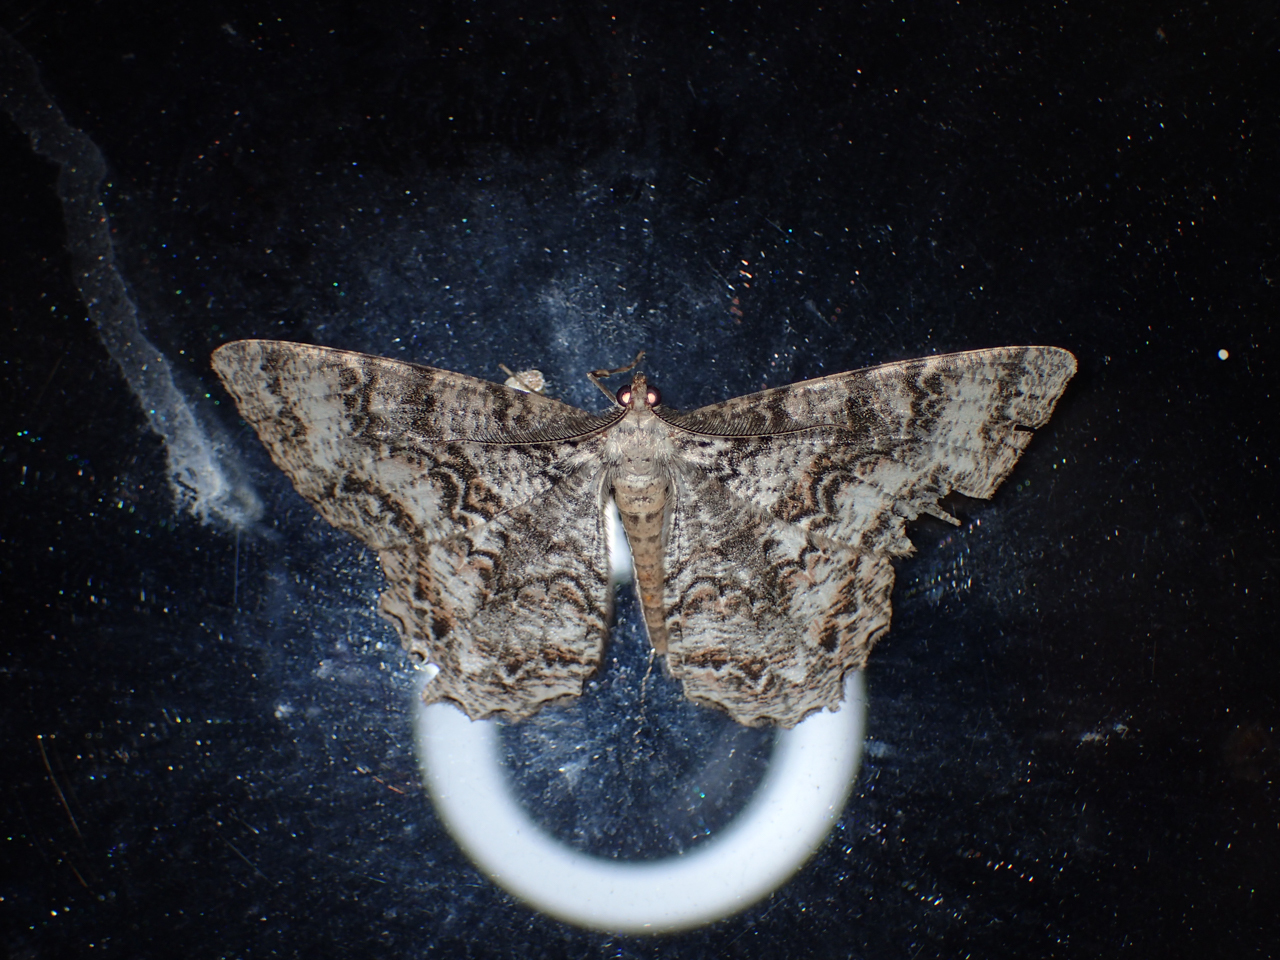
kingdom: Animalia
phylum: Arthropoda
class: Insecta
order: Lepidoptera
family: Geometridae
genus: Epimecis
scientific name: Epimecis hortaria
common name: Tulip-tree beauty
